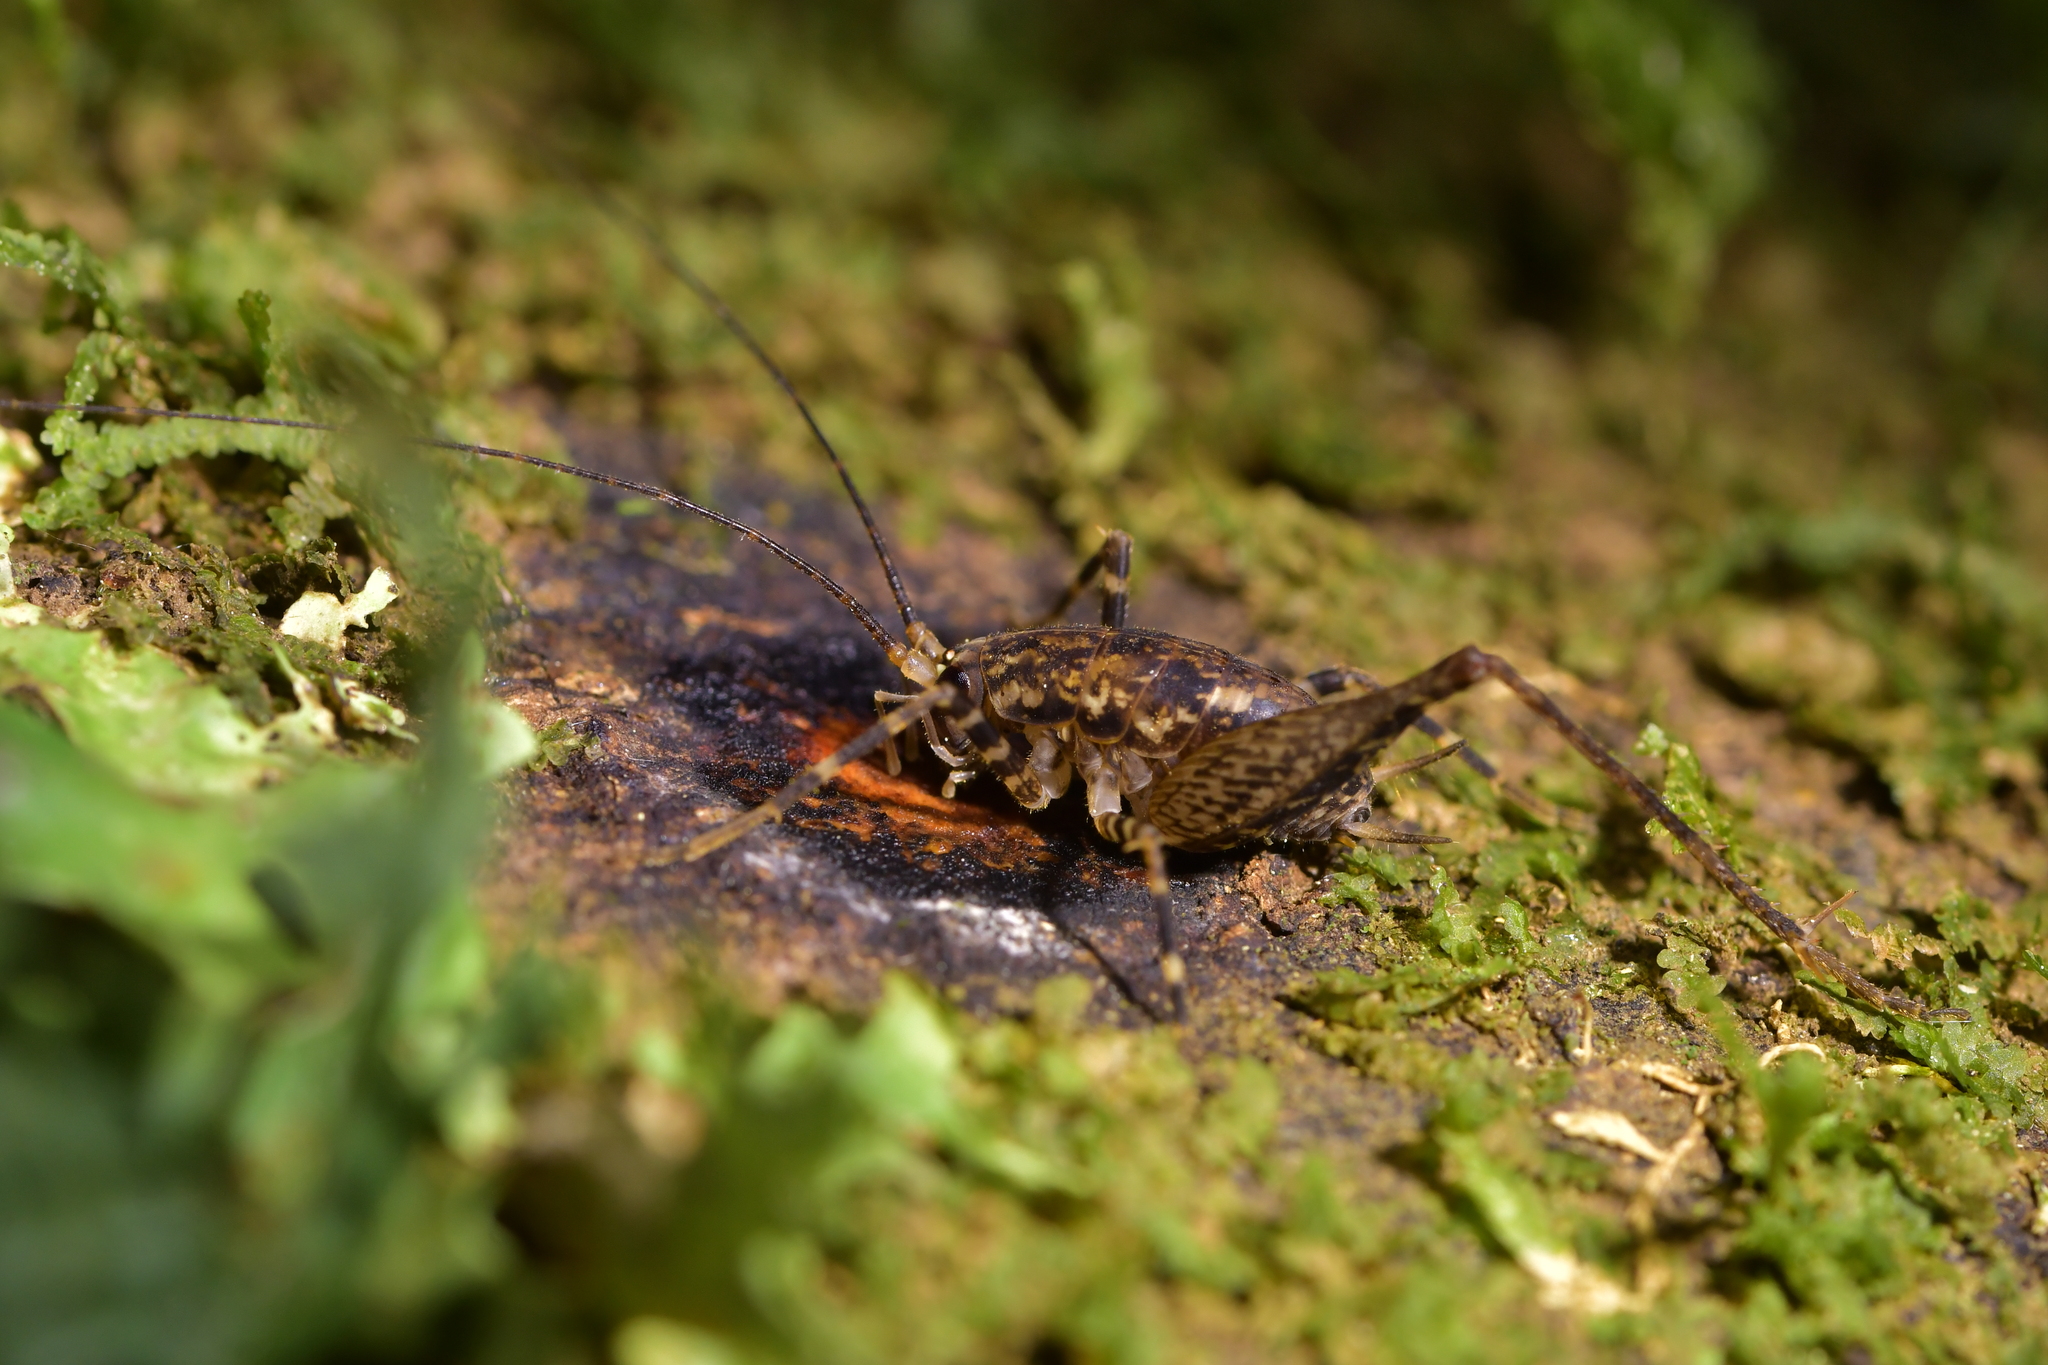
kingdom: Animalia
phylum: Arthropoda
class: Insecta
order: Orthoptera
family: Rhaphidophoridae
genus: Pleioplectron
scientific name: Pleioplectron hudsoni
